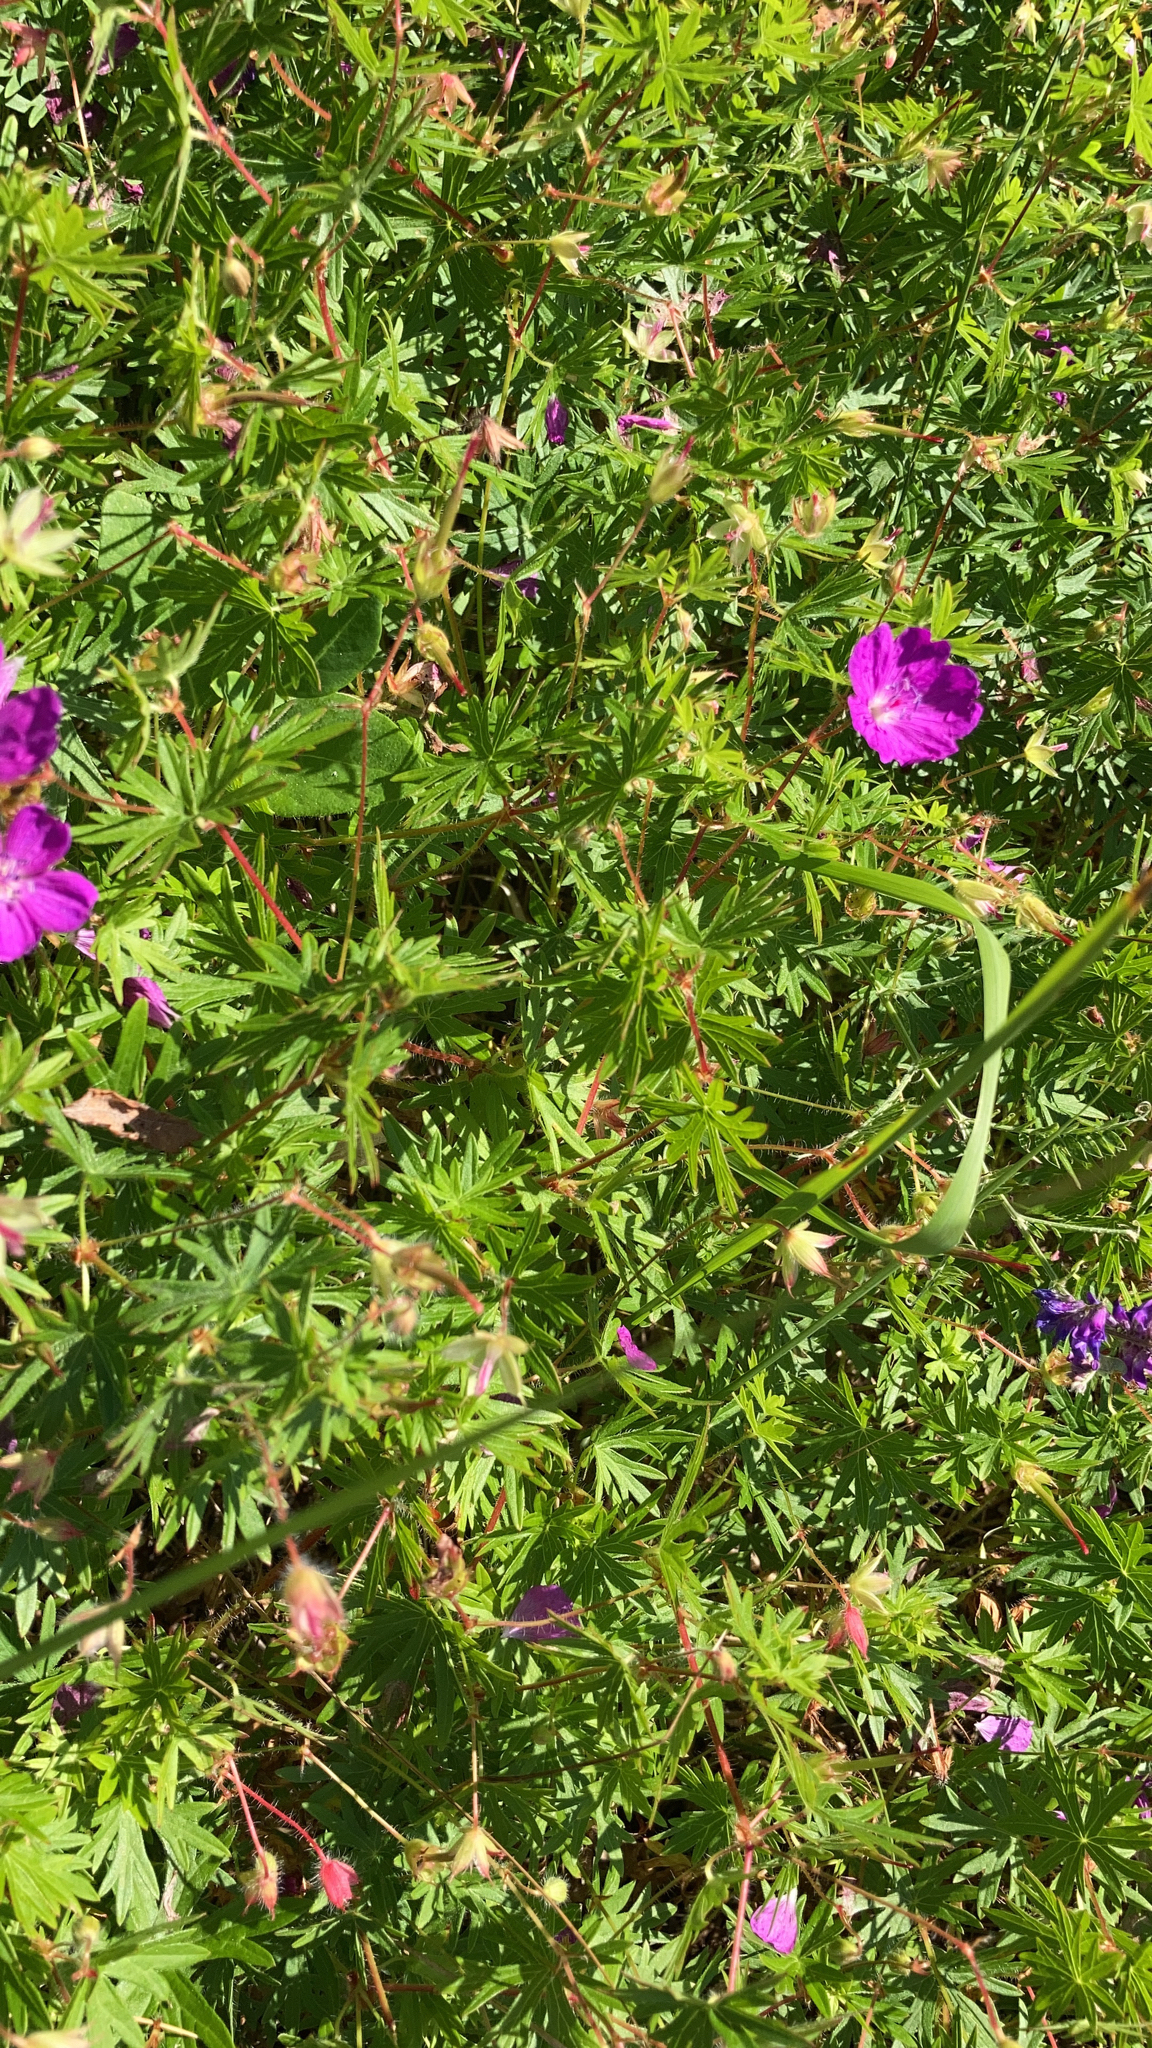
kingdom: Plantae
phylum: Tracheophyta
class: Magnoliopsida
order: Geraniales
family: Geraniaceae
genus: Geranium
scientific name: Geranium sanguineum
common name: Bloody crane's-bill
